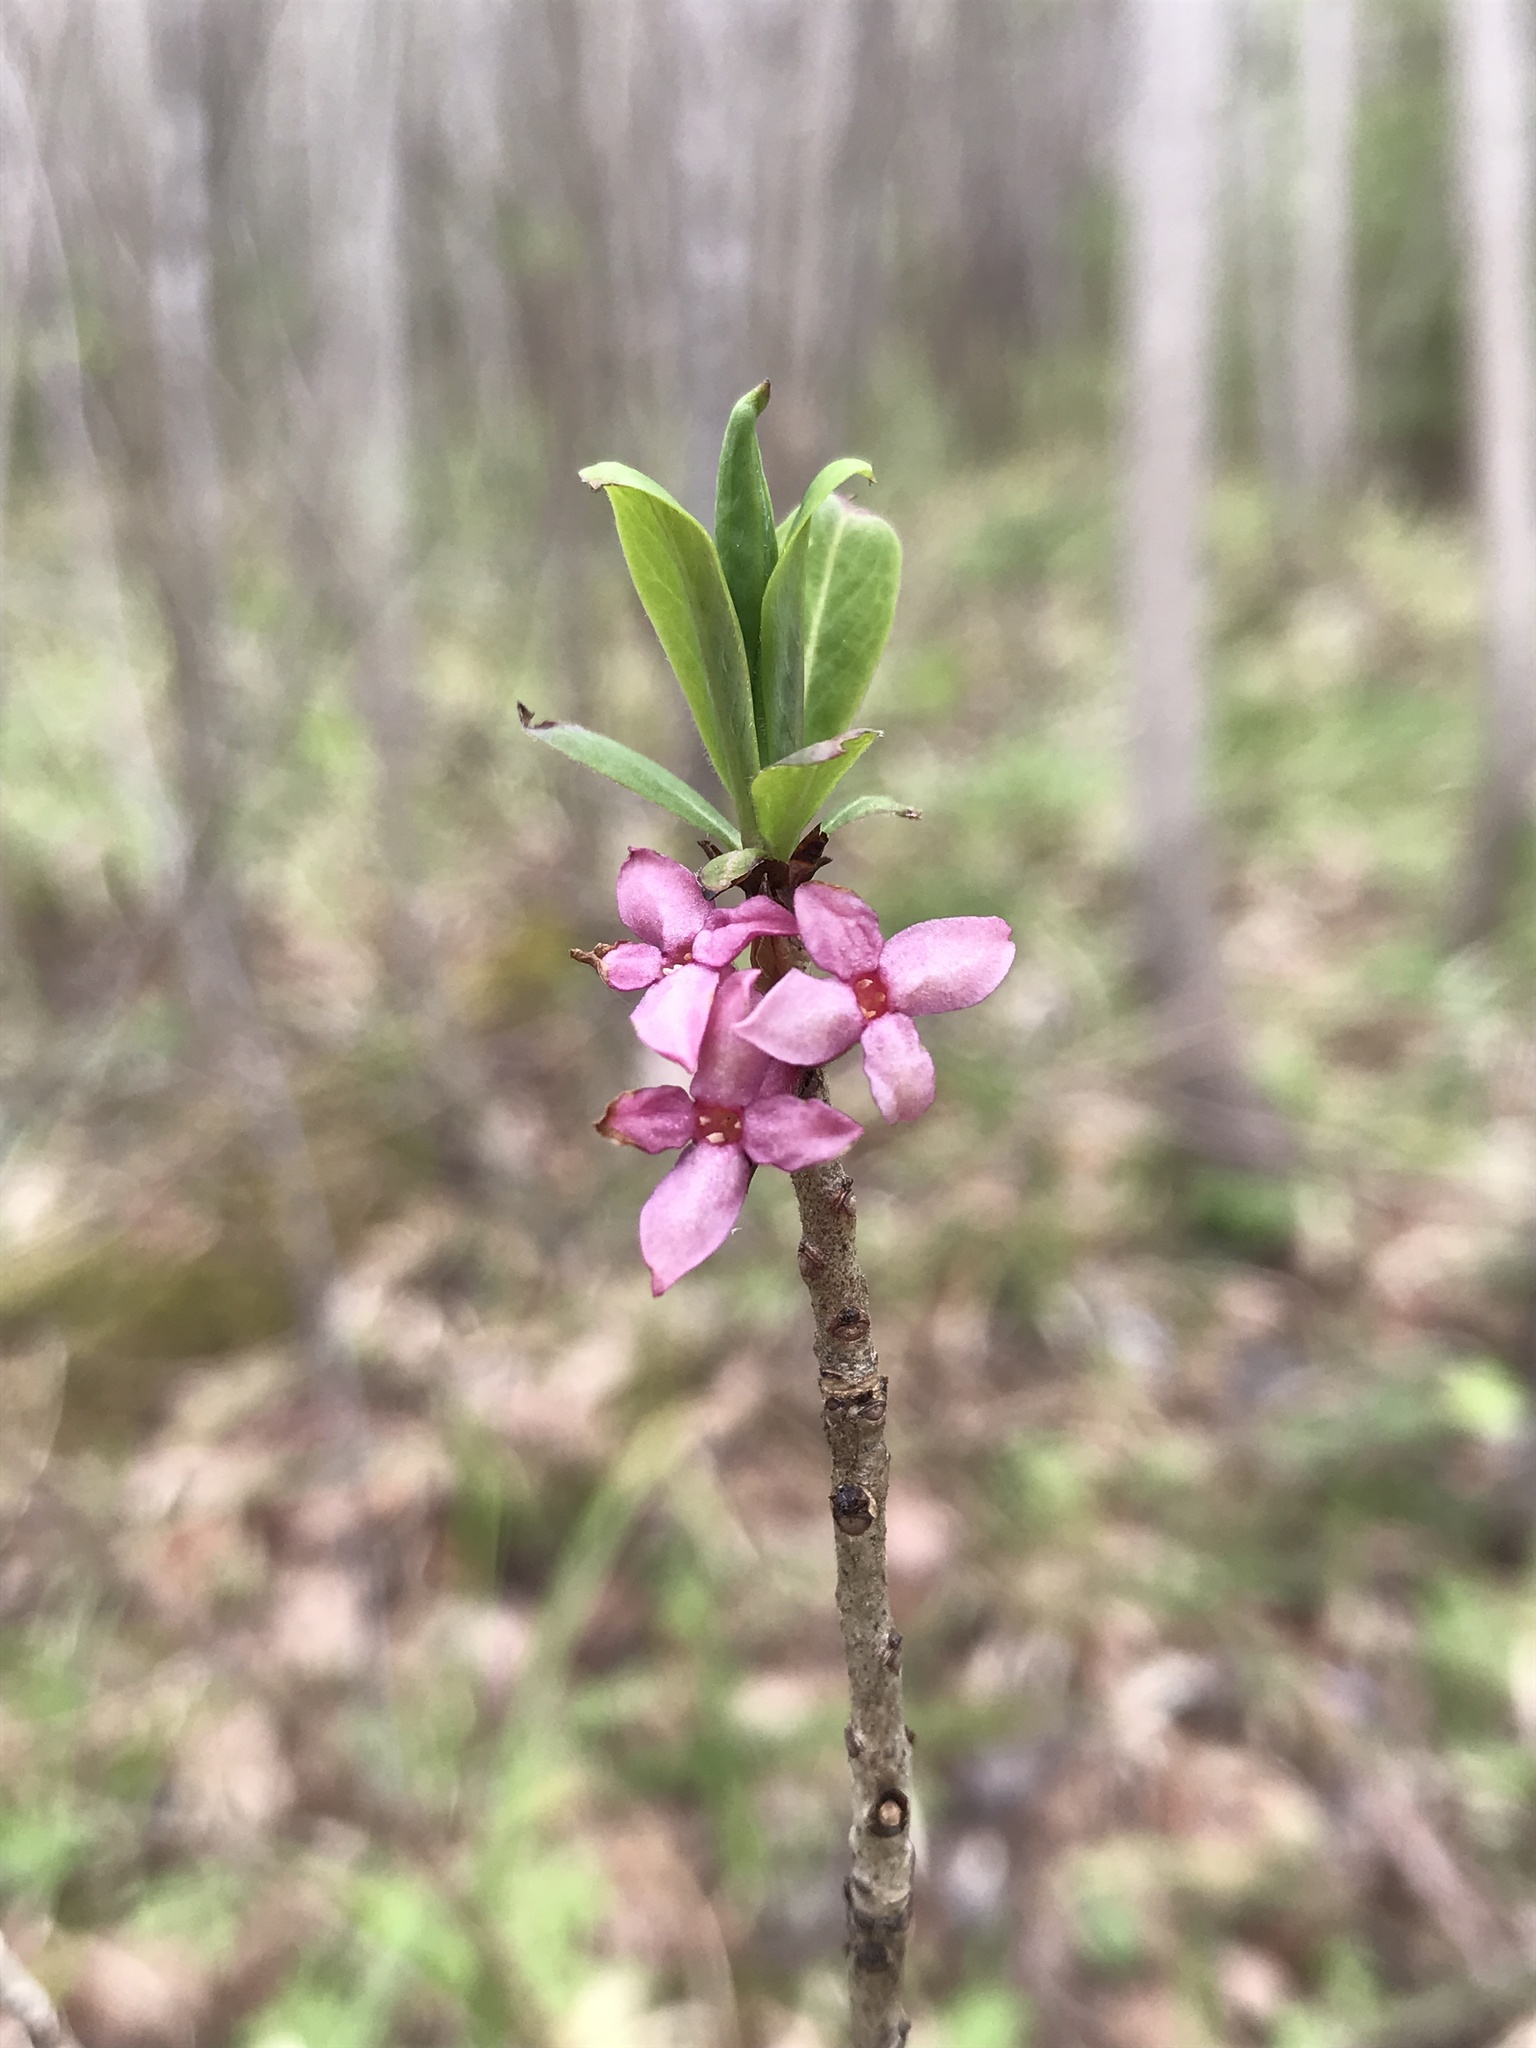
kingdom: Plantae
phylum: Tracheophyta
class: Magnoliopsida
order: Malvales
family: Thymelaeaceae
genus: Daphne
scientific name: Daphne mezereum
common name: Mezereon
